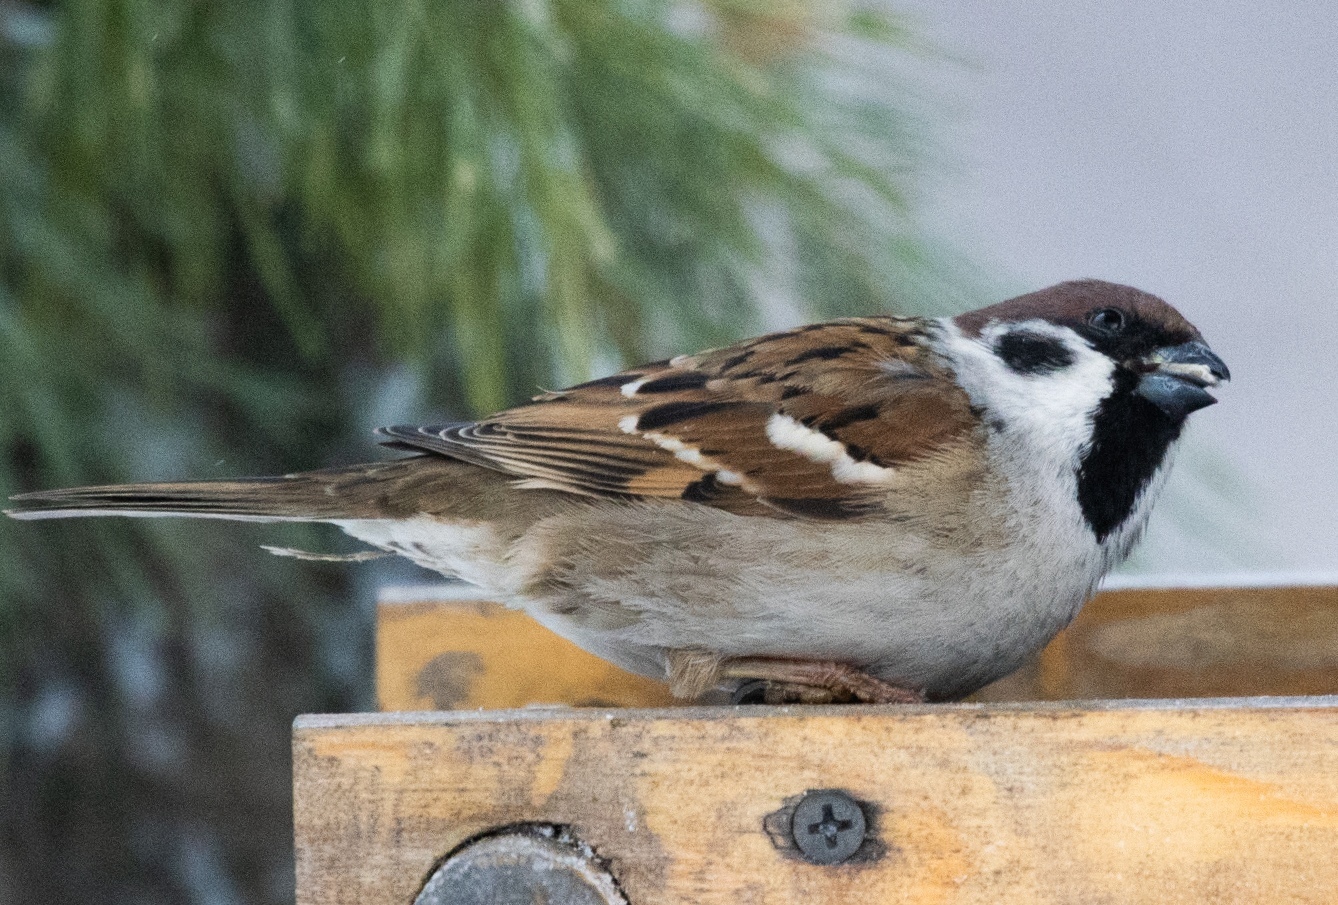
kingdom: Animalia
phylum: Chordata
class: Aves
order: Passeriformes
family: Passeridae
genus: Passer
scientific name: Passer montanus
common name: Eurasian tree sparrow
